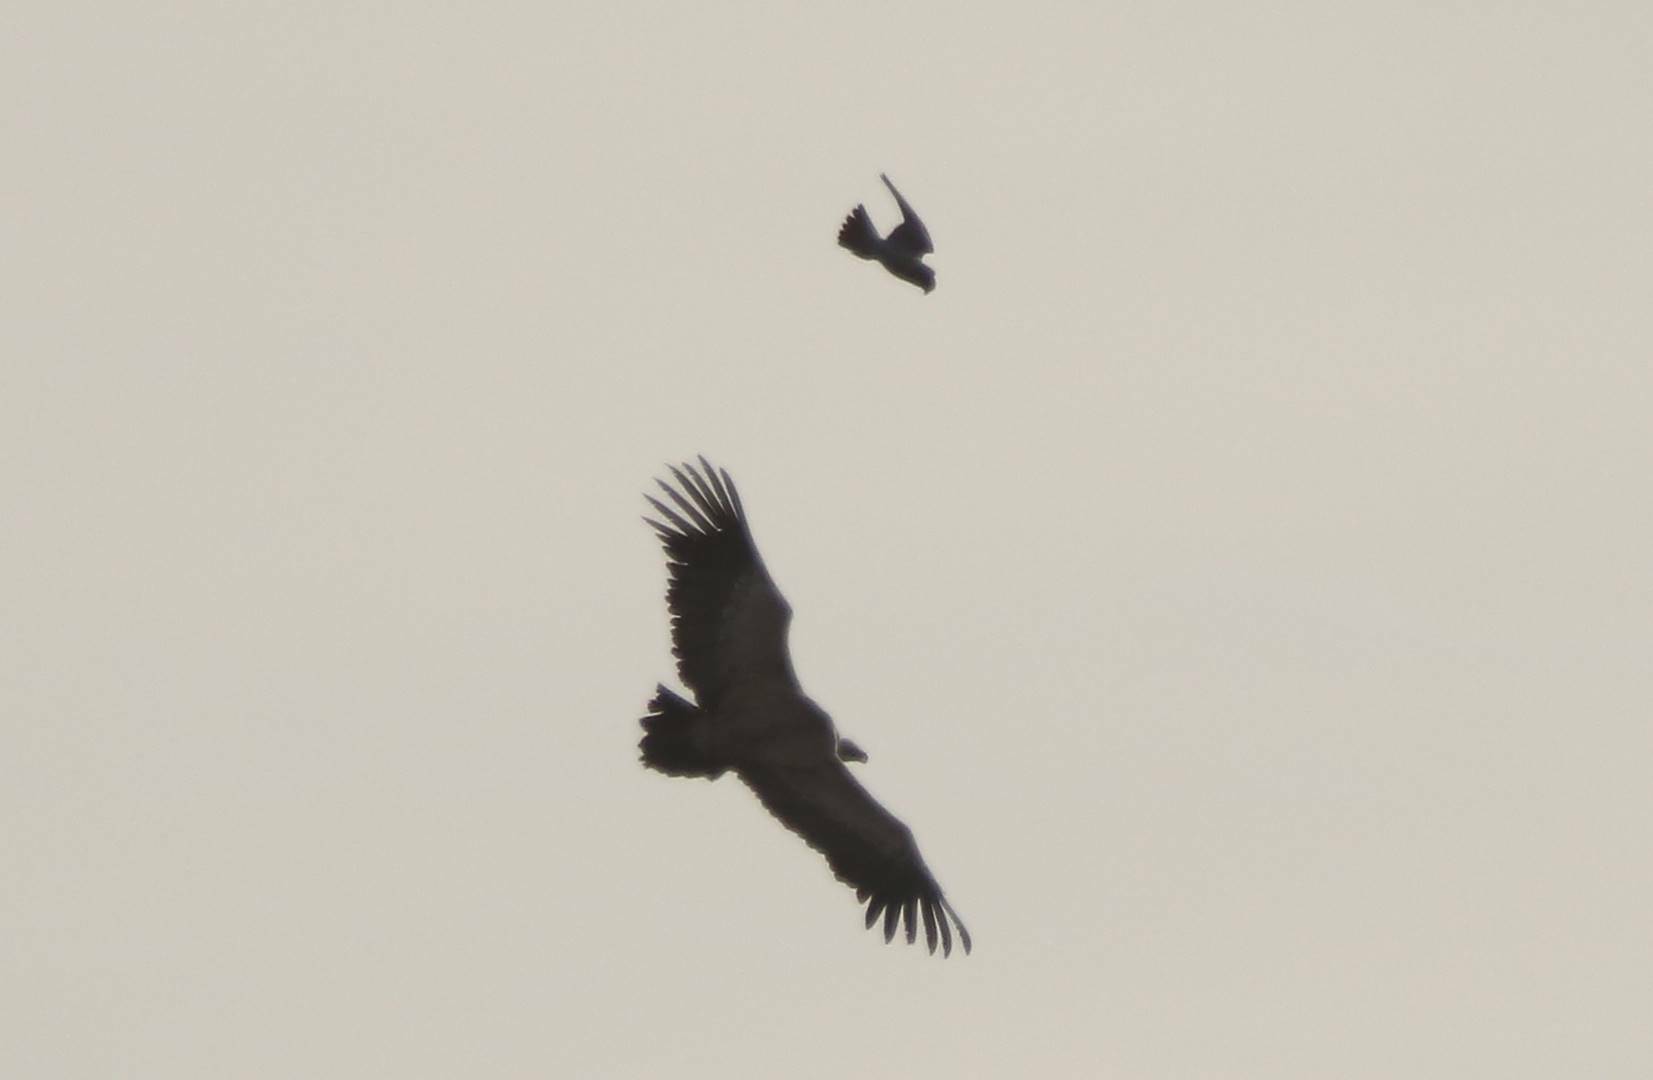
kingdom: Animalia
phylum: Chordata
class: Aves
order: Accipitriformes
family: Accipitridae
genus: Gyps
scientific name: Gyps fulvus
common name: Griffon vulture
